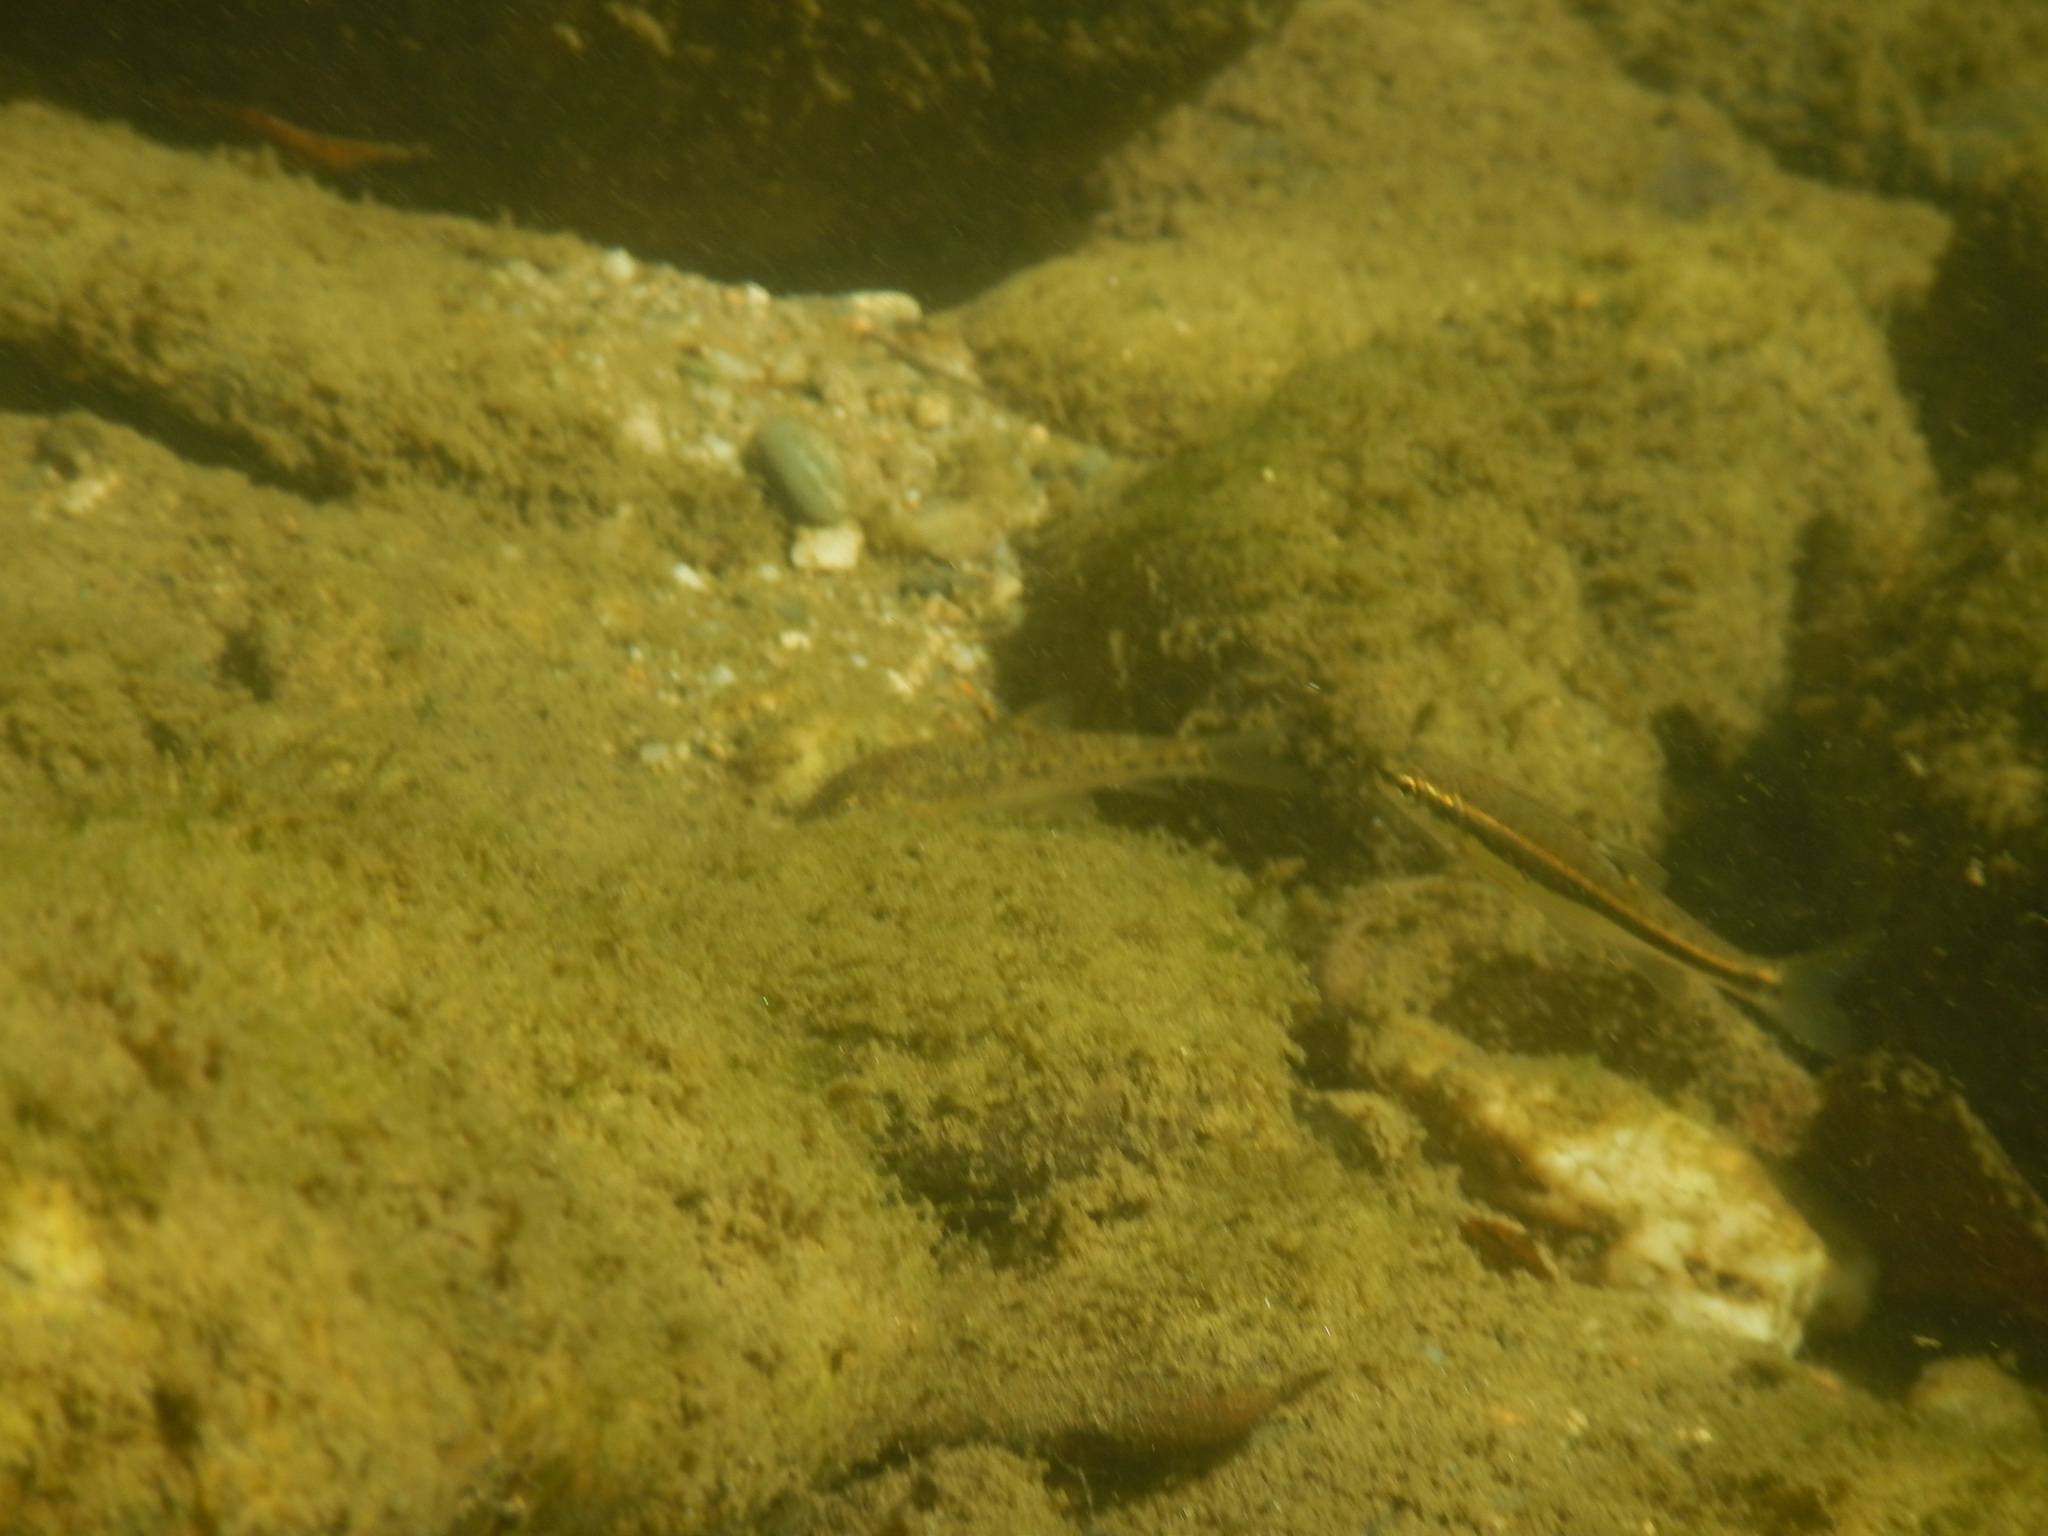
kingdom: Animalia
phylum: Chordata
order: Cypriniformes
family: Cyprinidae
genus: Phoxinus
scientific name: Phoxinus septimaniae
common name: Languedoc minnow
